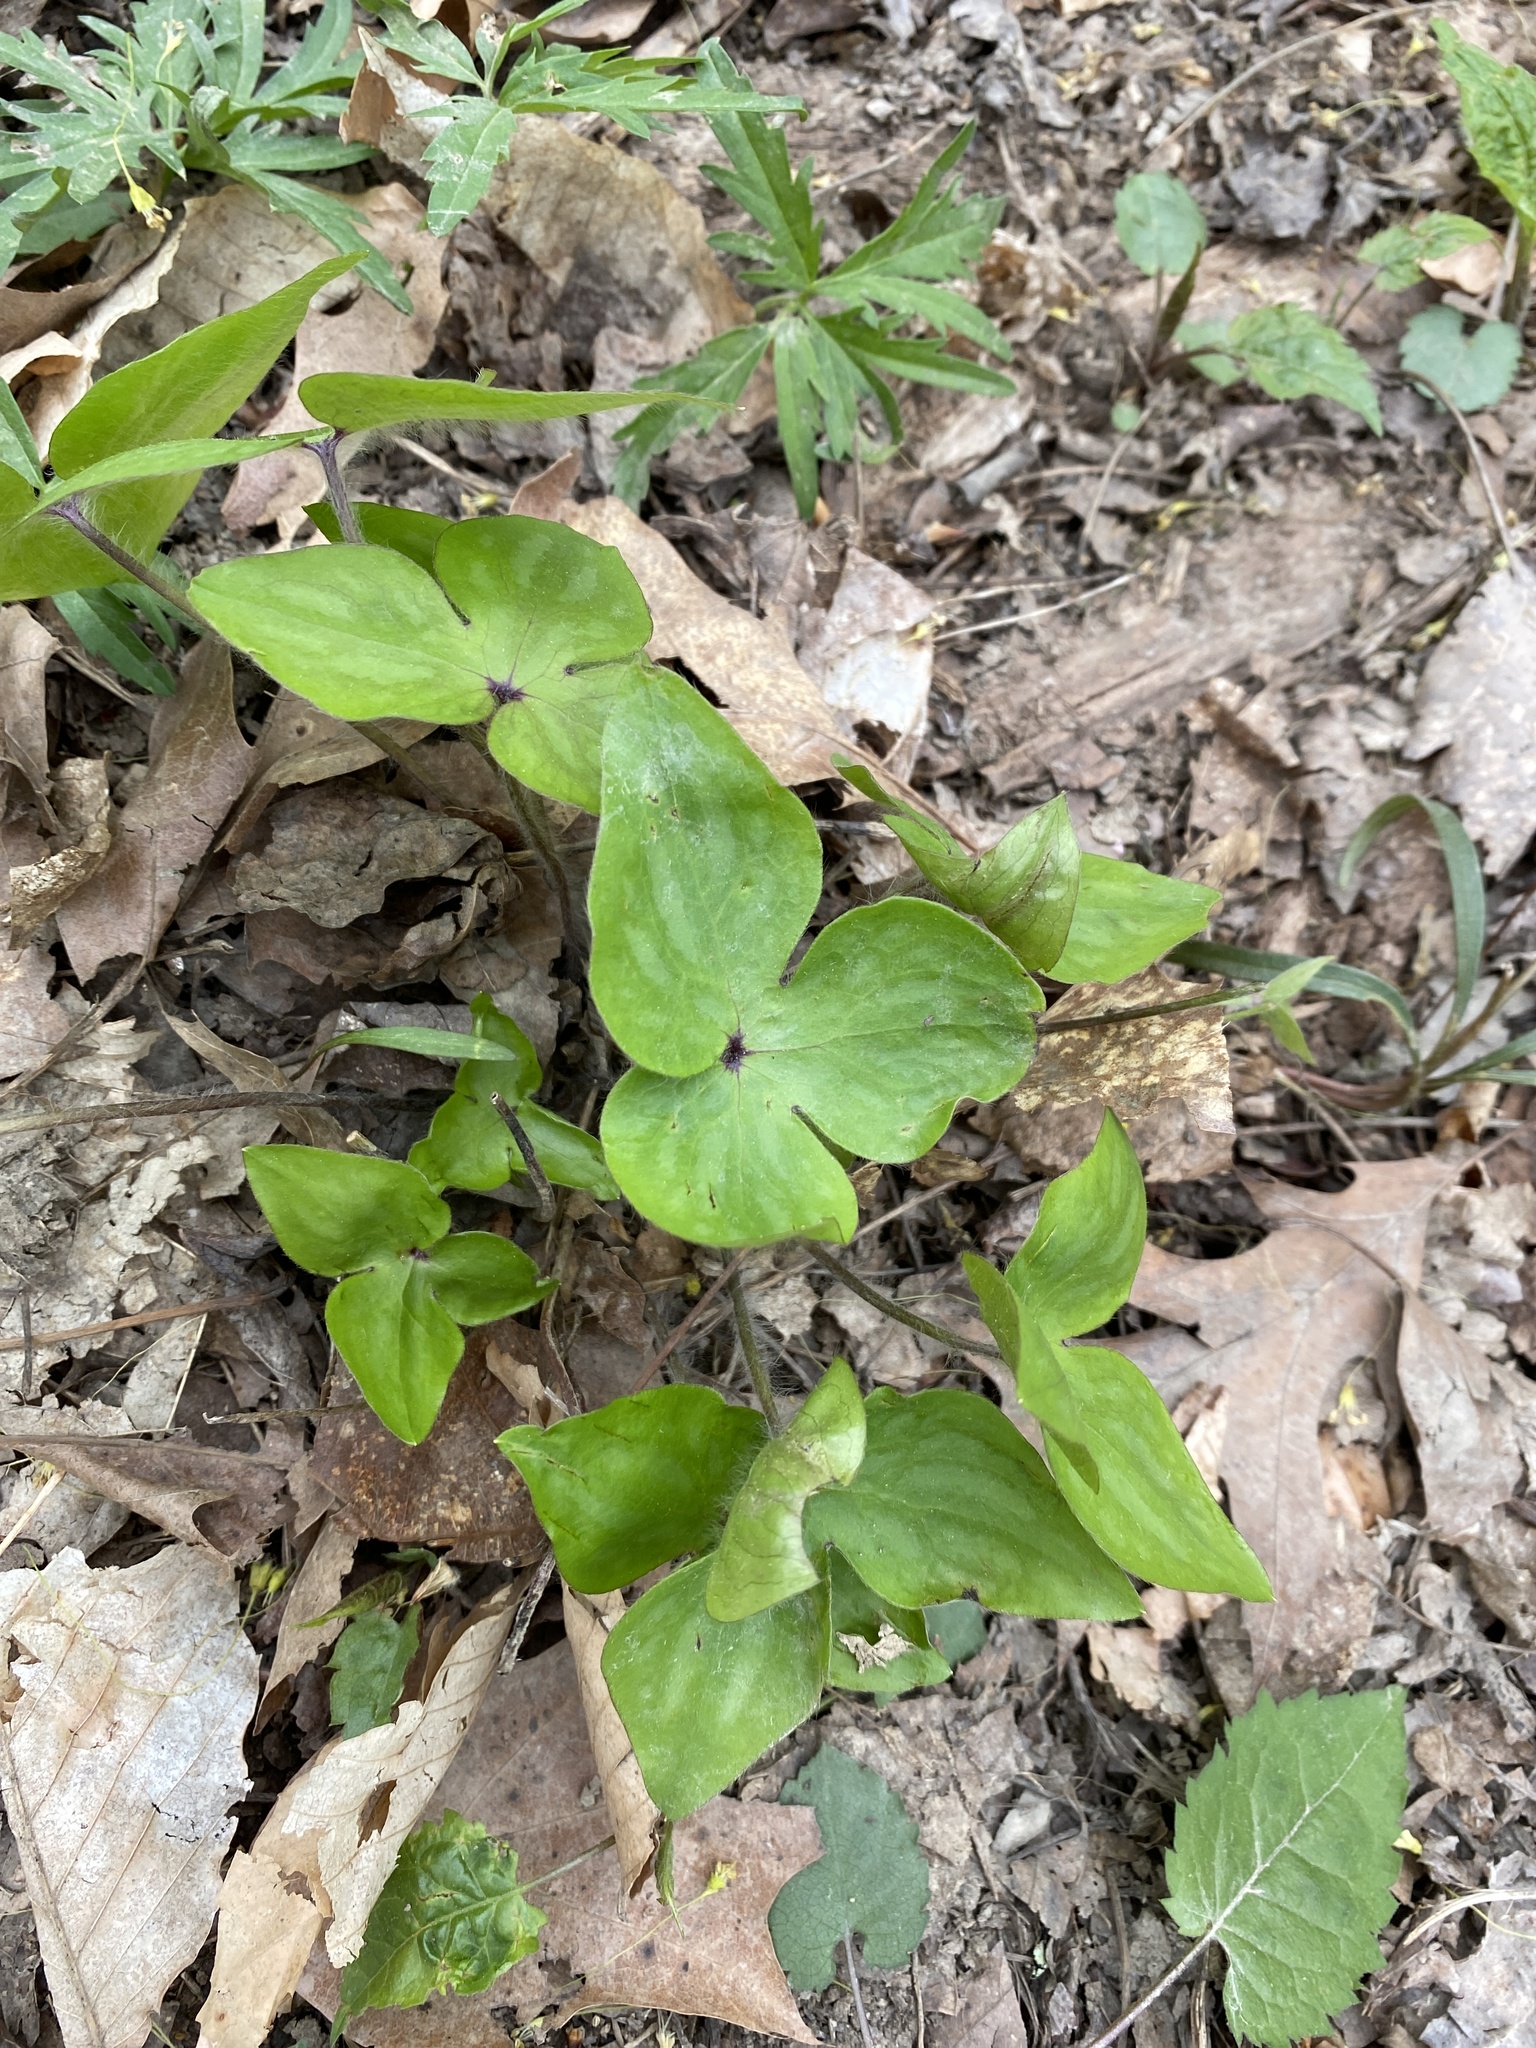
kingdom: Plantae
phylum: Tracheophyta
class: Magnoliopsida
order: Ranunculales
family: Ranunculaceae
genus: Hepatica
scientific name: Hepatica acutiloba
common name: Sharp-lobed hepatica
